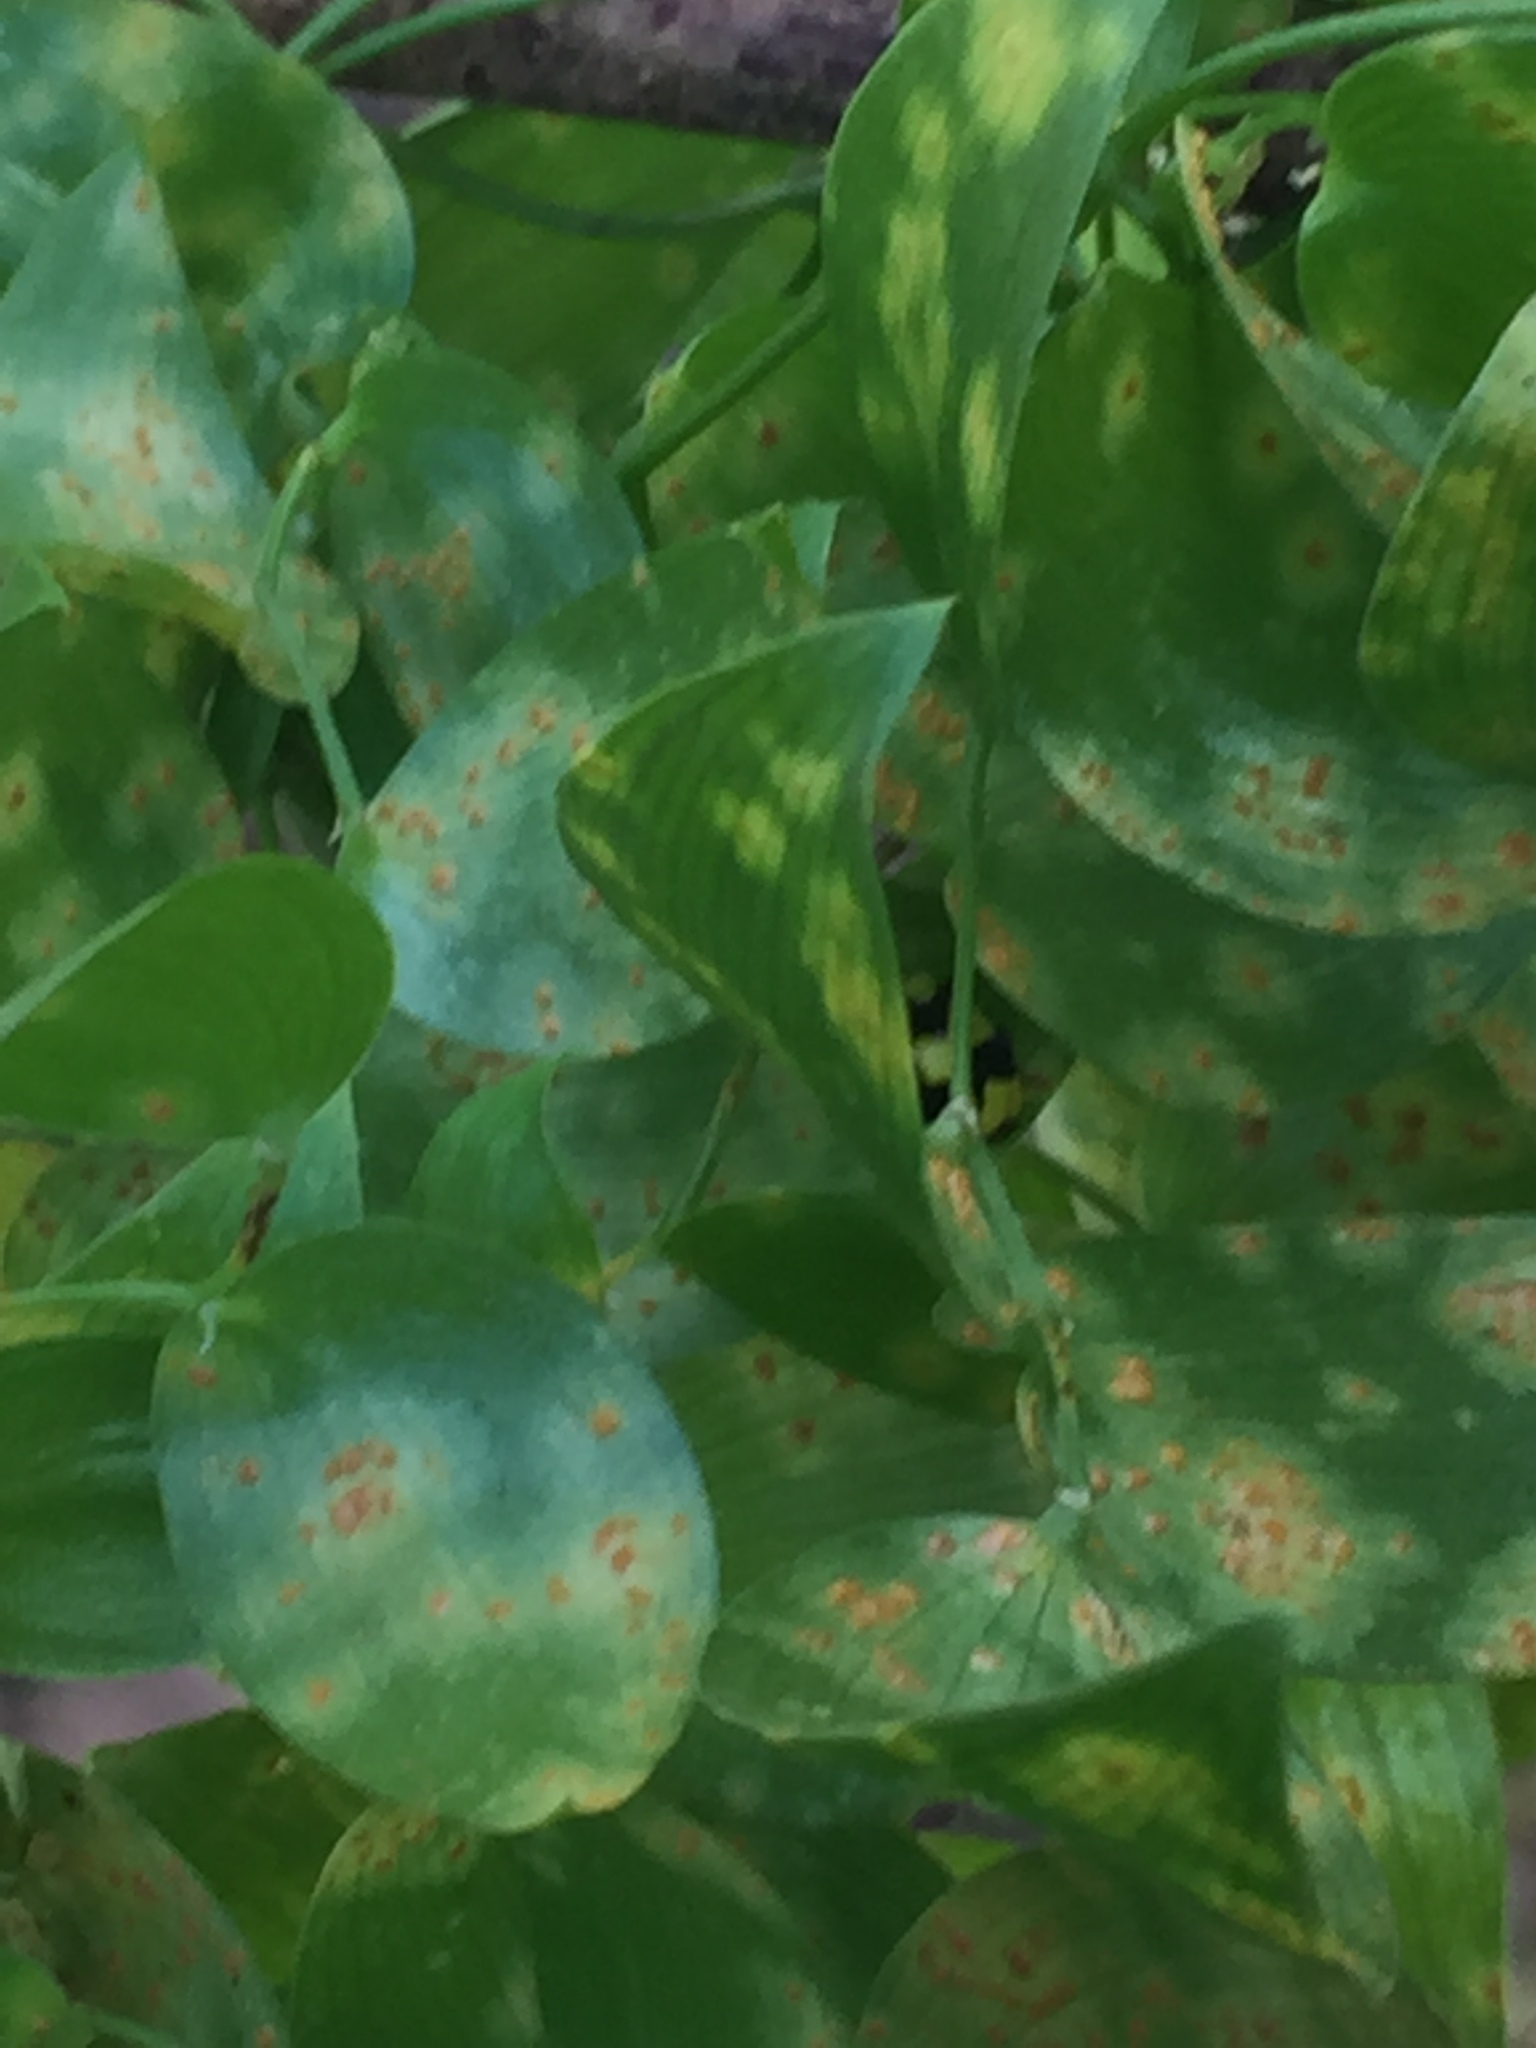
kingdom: Fungi
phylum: Basidiomycota
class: Pucciniomycetes
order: Pucciniales
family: Pucciniaceae
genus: Puccinia
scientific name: Puccinia myrsiphylli
